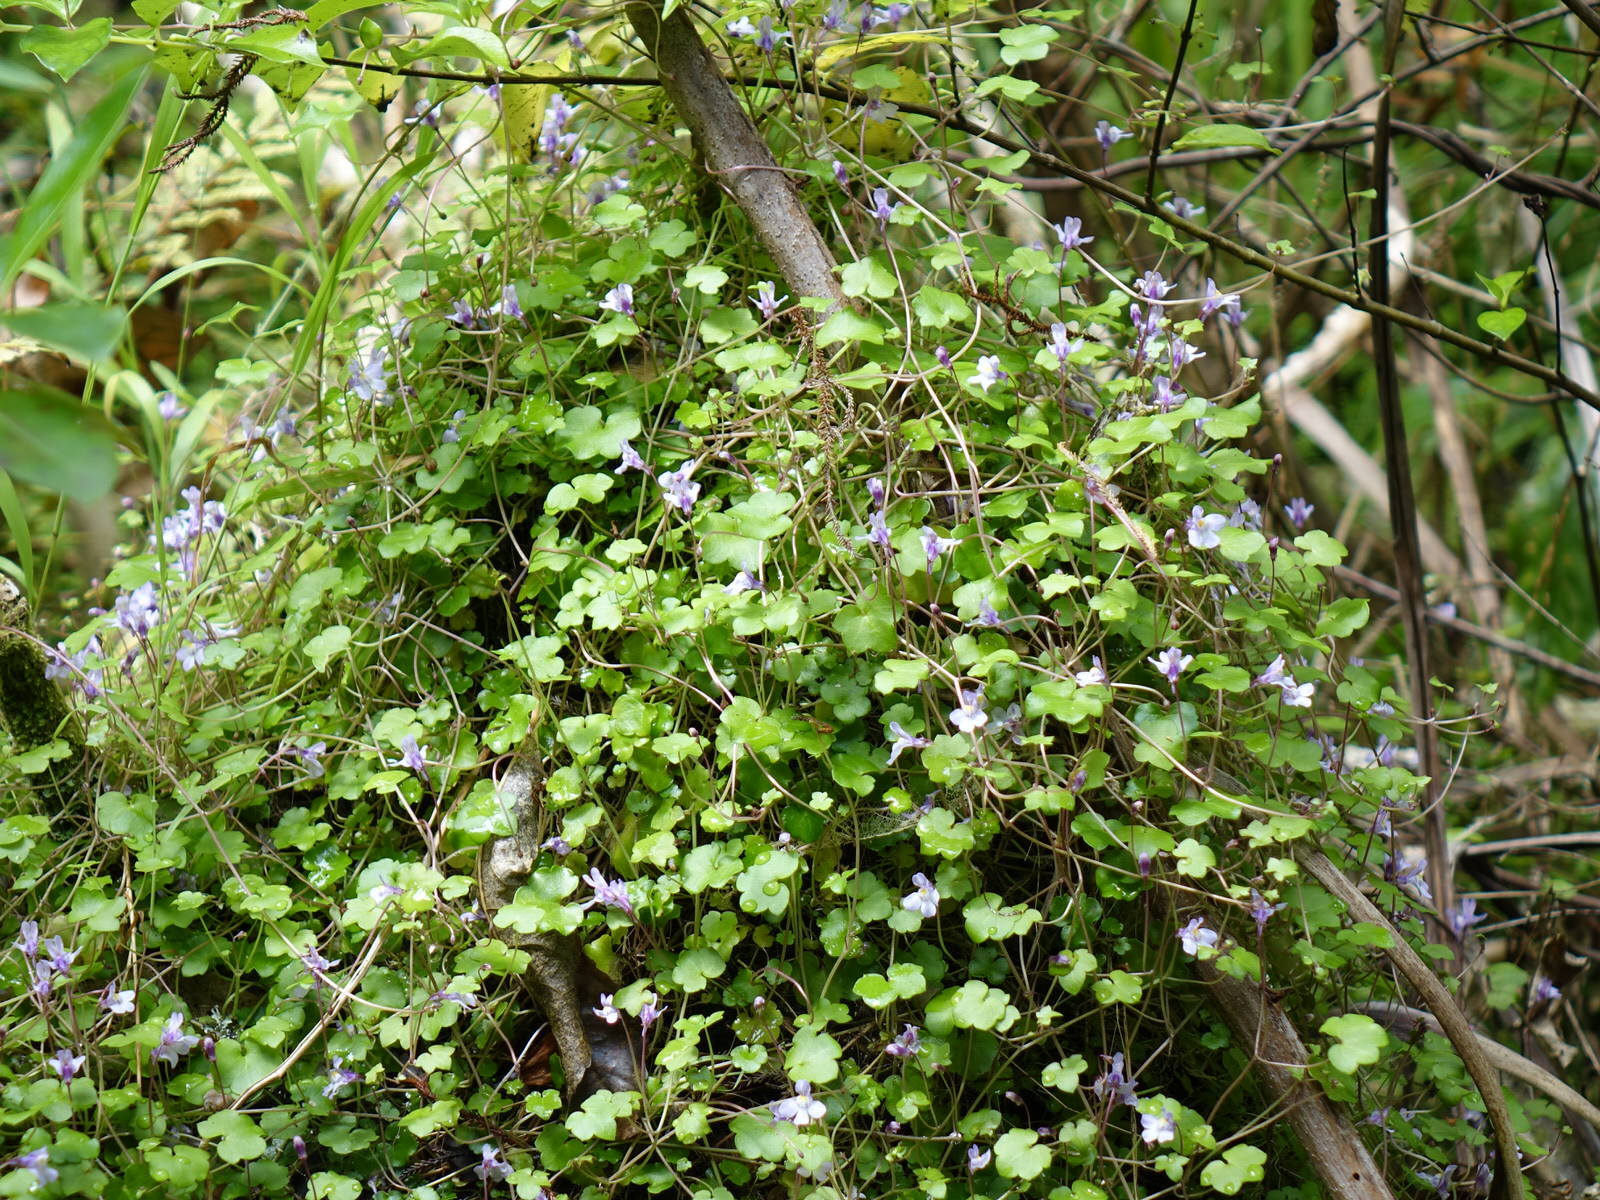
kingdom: Plantae
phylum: Tracheophyta
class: Magnoliopsida
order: Lamiales
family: Plantaginaceae
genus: Cymbalaria
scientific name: Cymbalaria muralis
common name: Ivy-leaved toadflax
